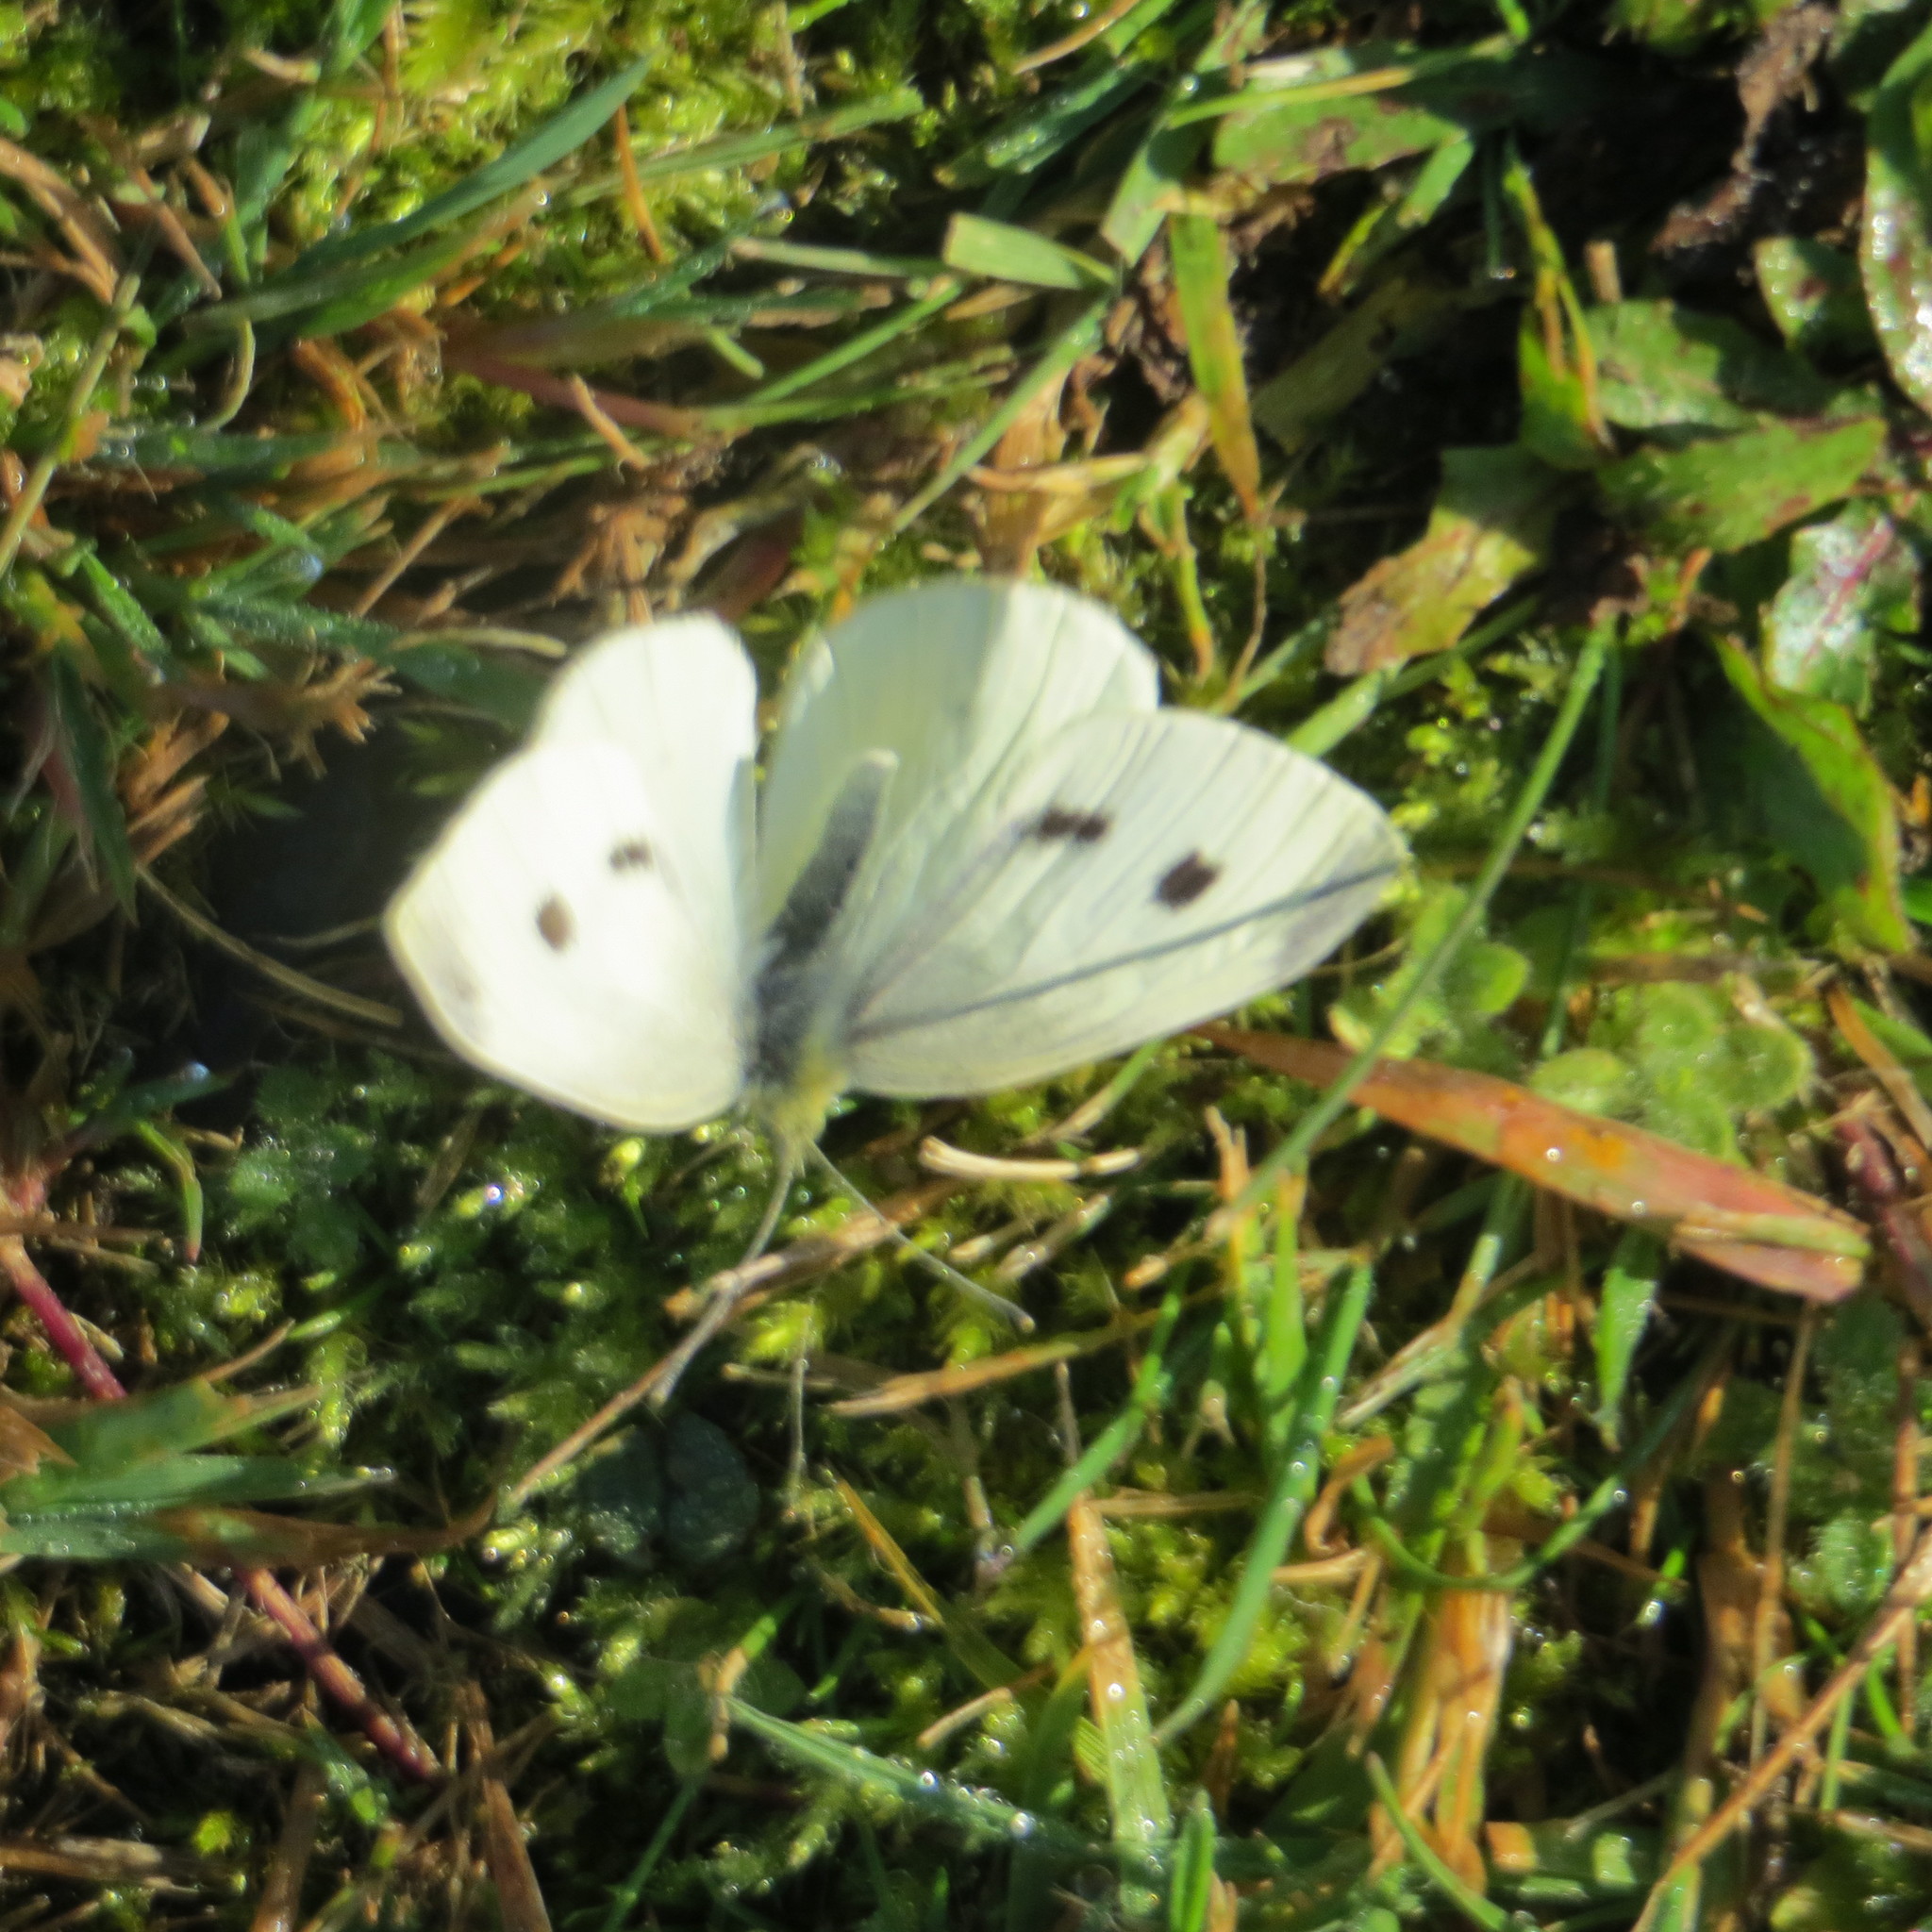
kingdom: Animalia
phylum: Arthropoda
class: Insecta
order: Lepidoptera
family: Pieridae
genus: Pieris
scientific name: Pieris rapae
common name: Small white
